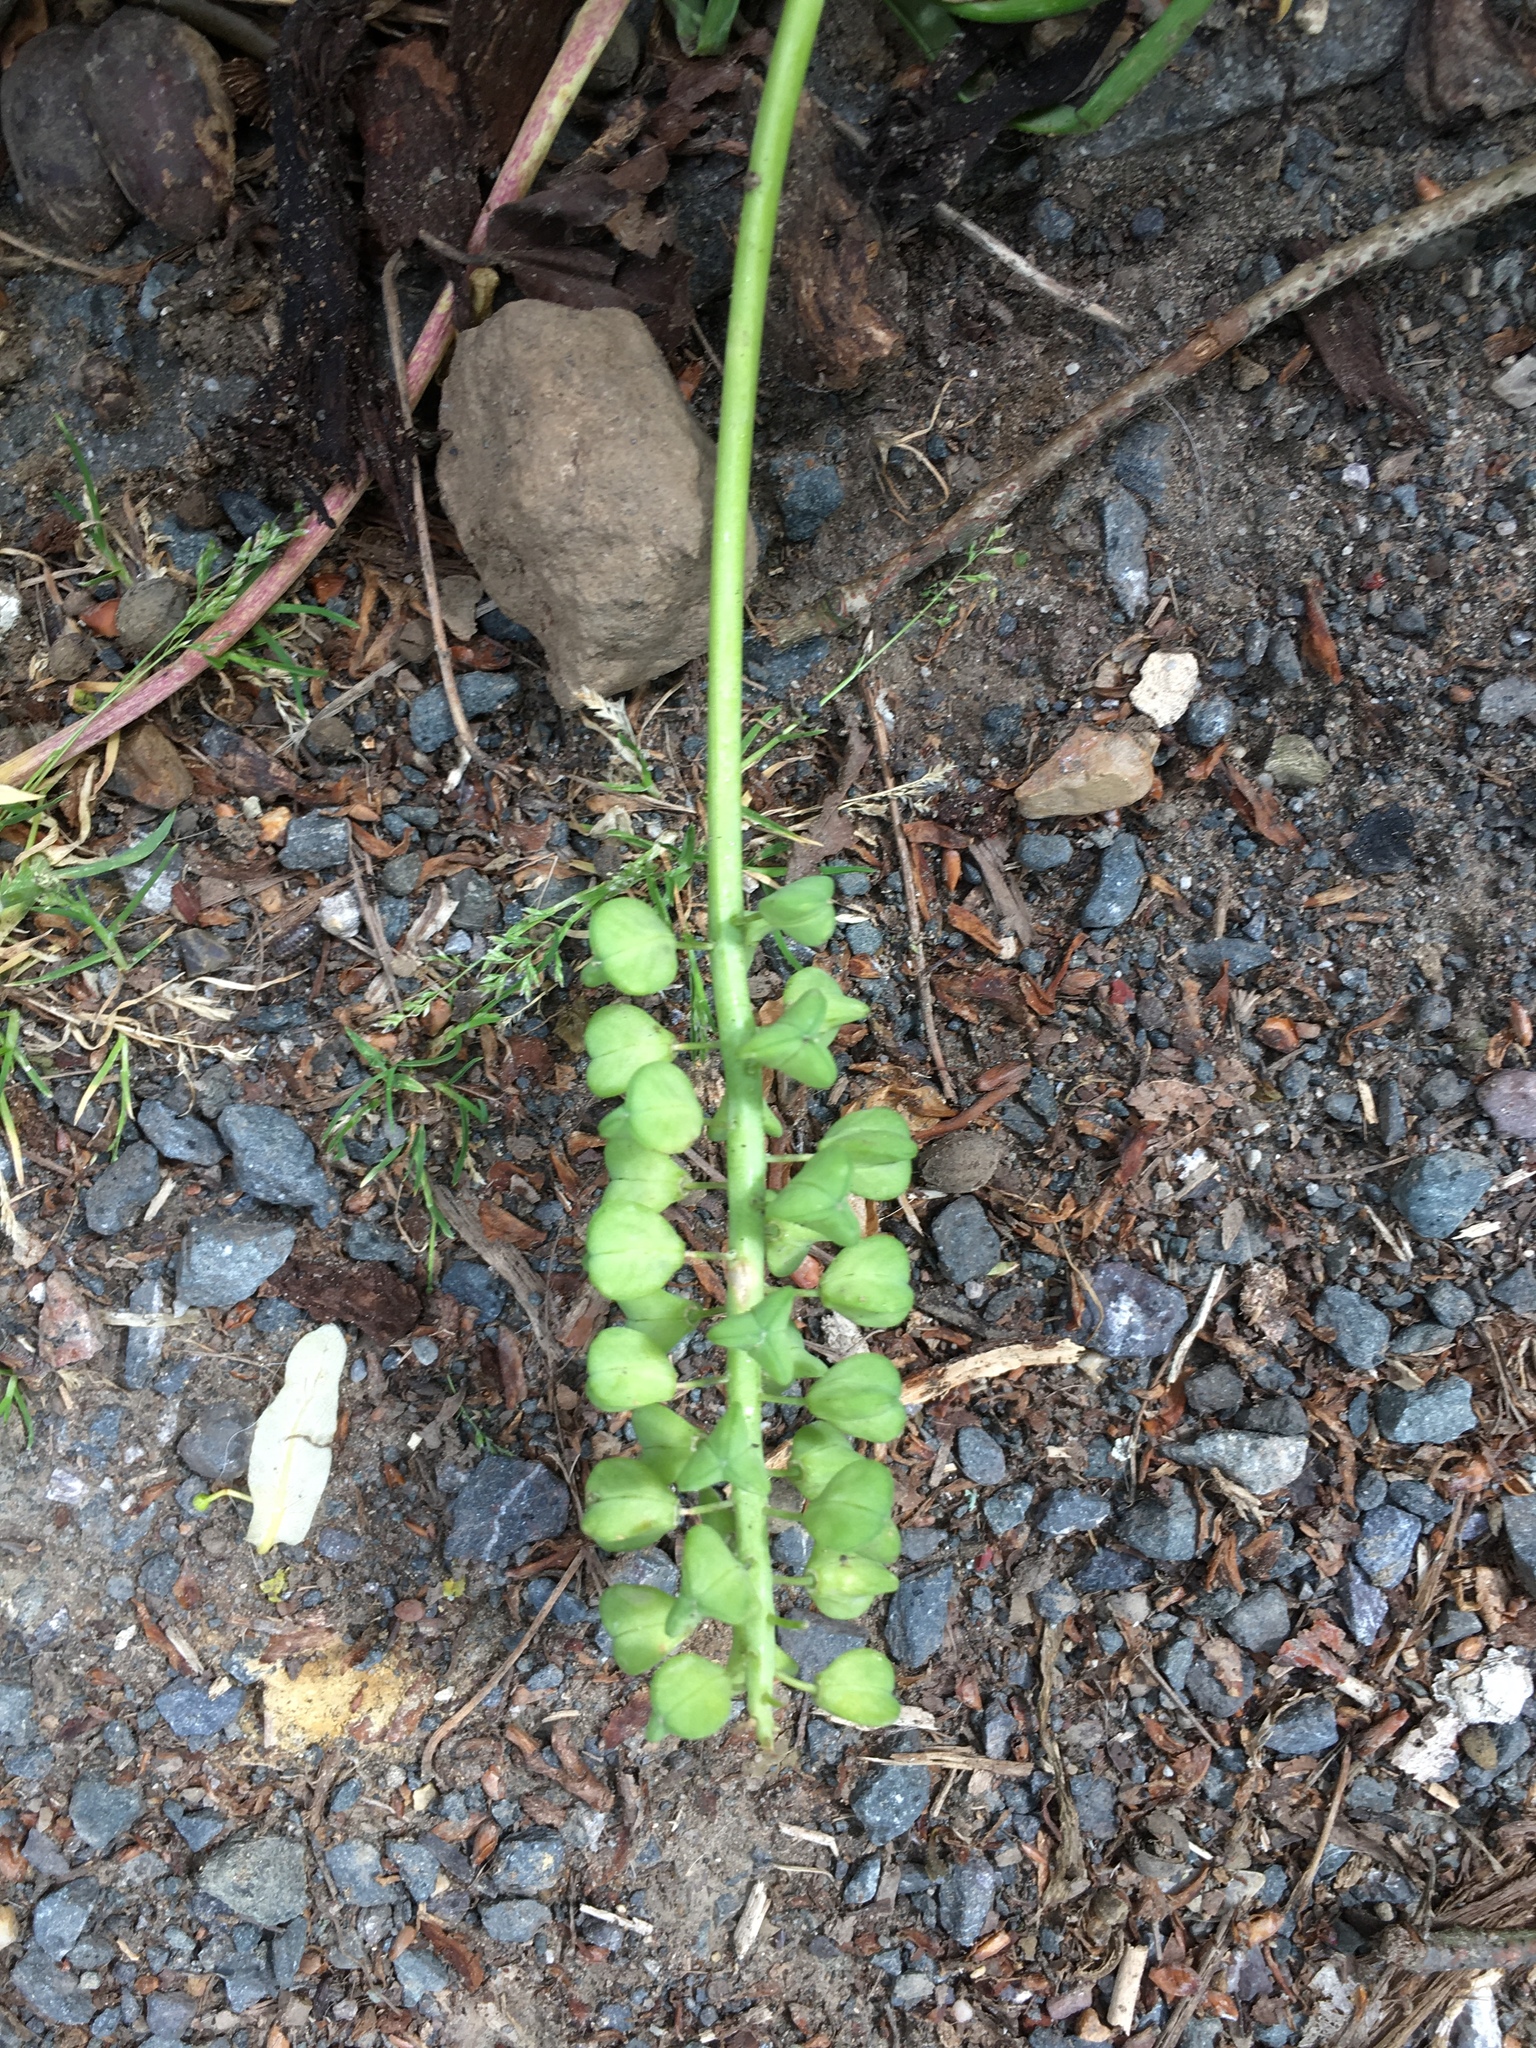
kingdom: Plantae
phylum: Tracheophyta
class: Liliopsida
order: Asparagales
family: Asparagaceae
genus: Muscari
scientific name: Muscari
